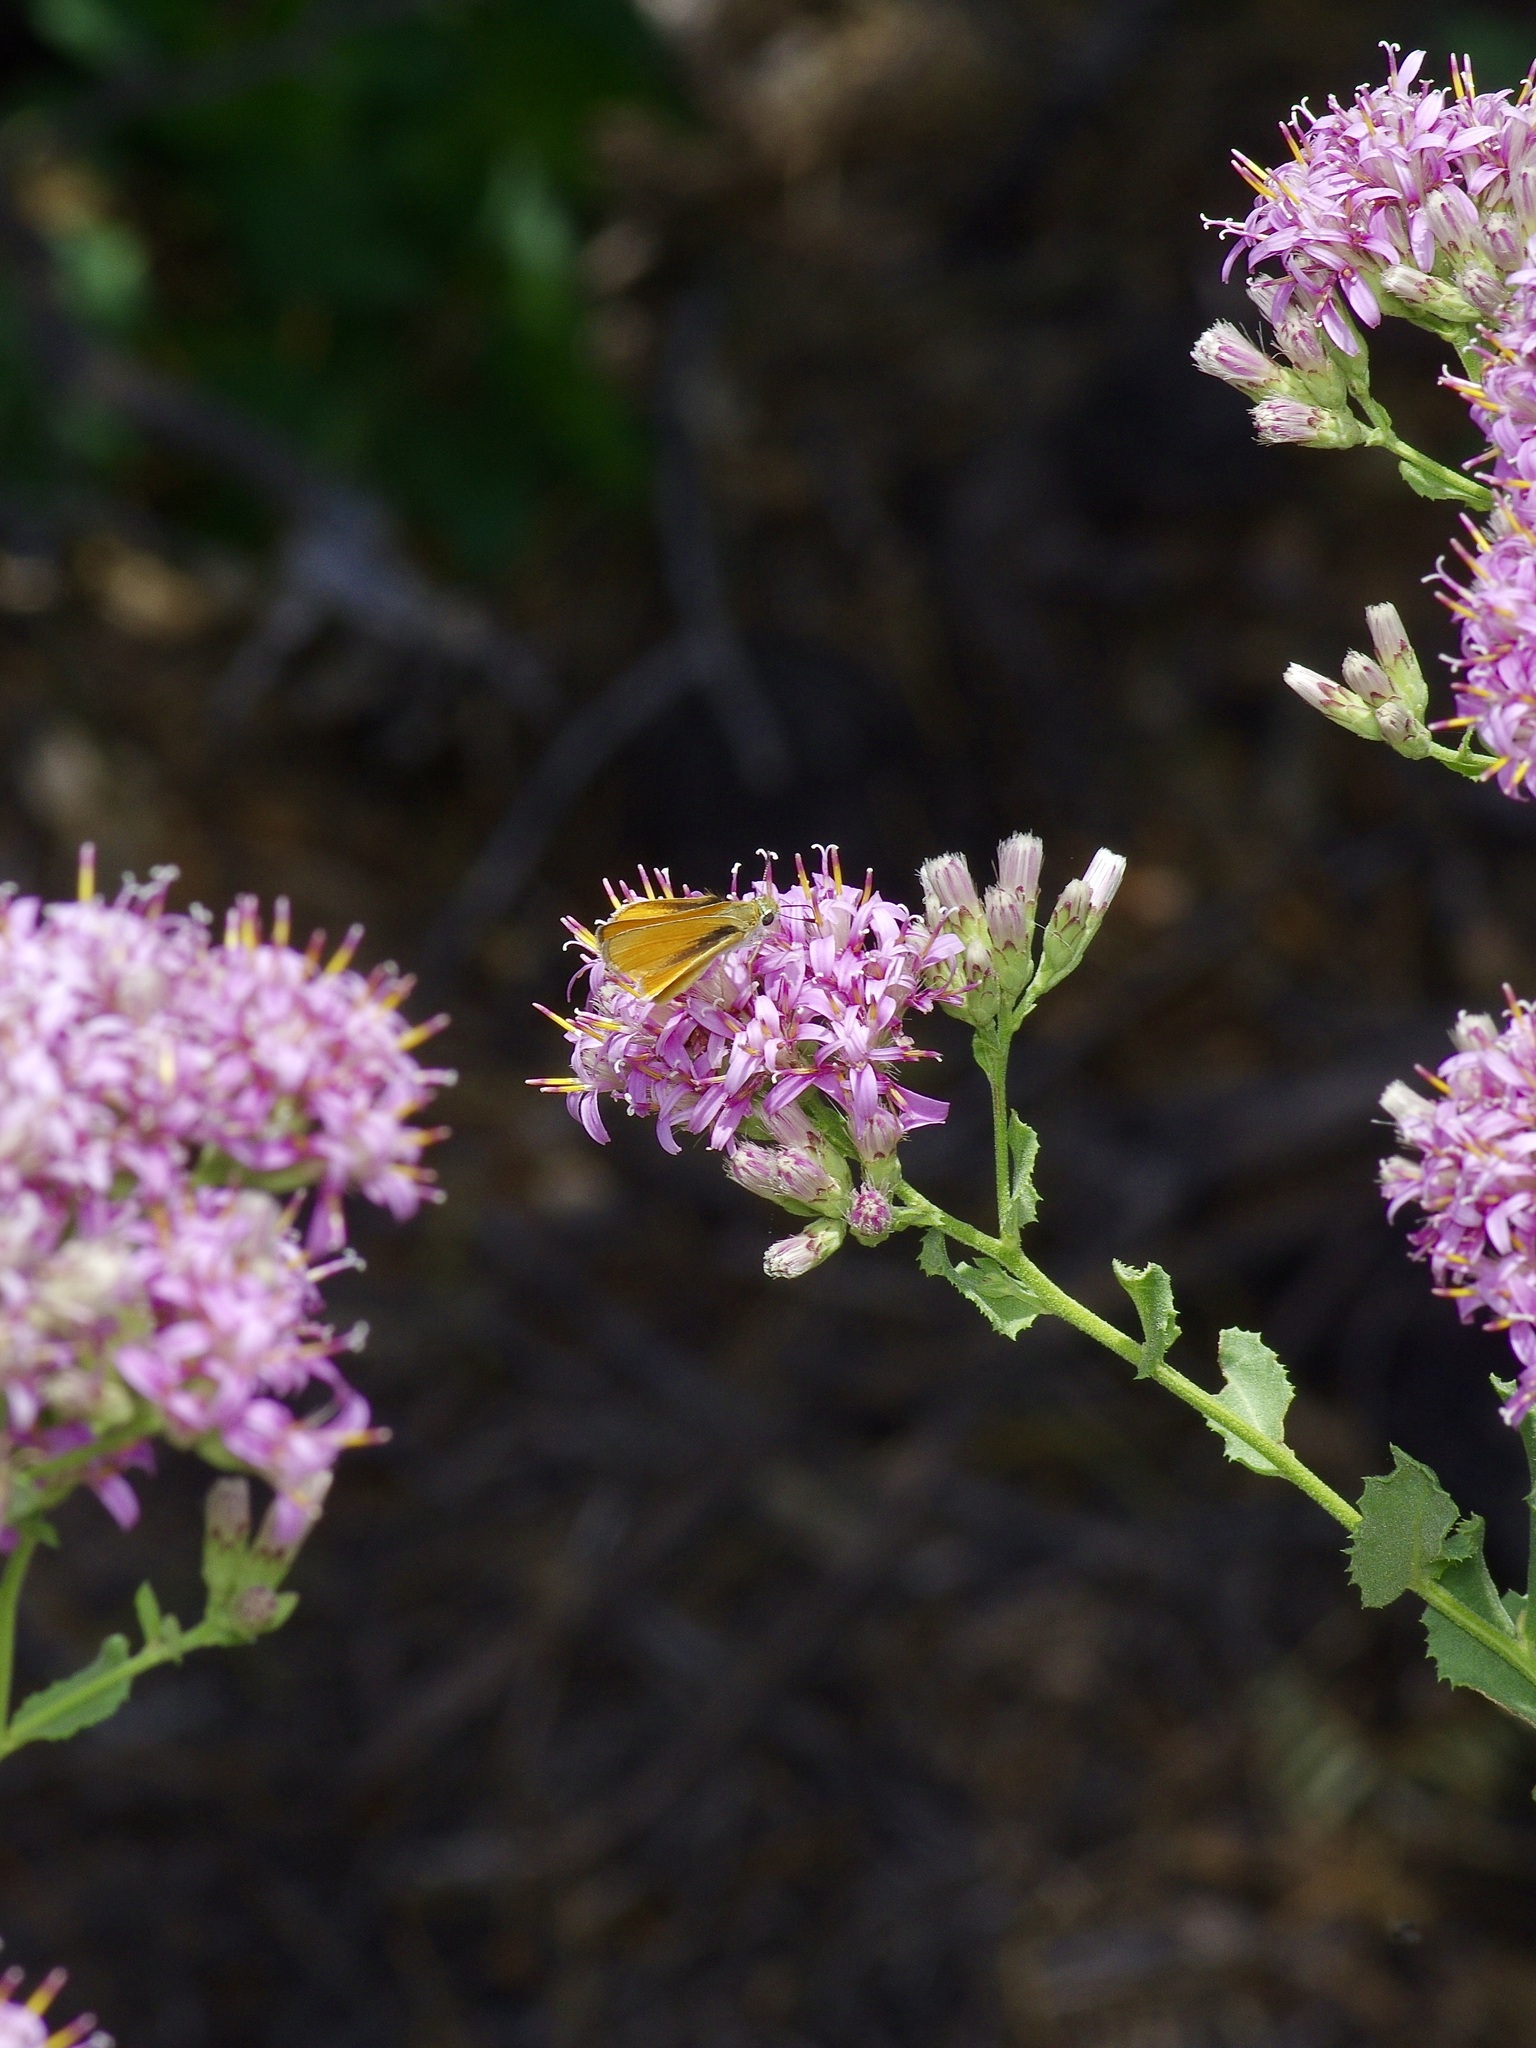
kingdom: Animalia
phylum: Arthropoda
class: Insecta
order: Lepidoptera
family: Hesperiidae
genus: Copaeodes
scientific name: Copaeodes aurantiaca
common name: Orange skipperling
